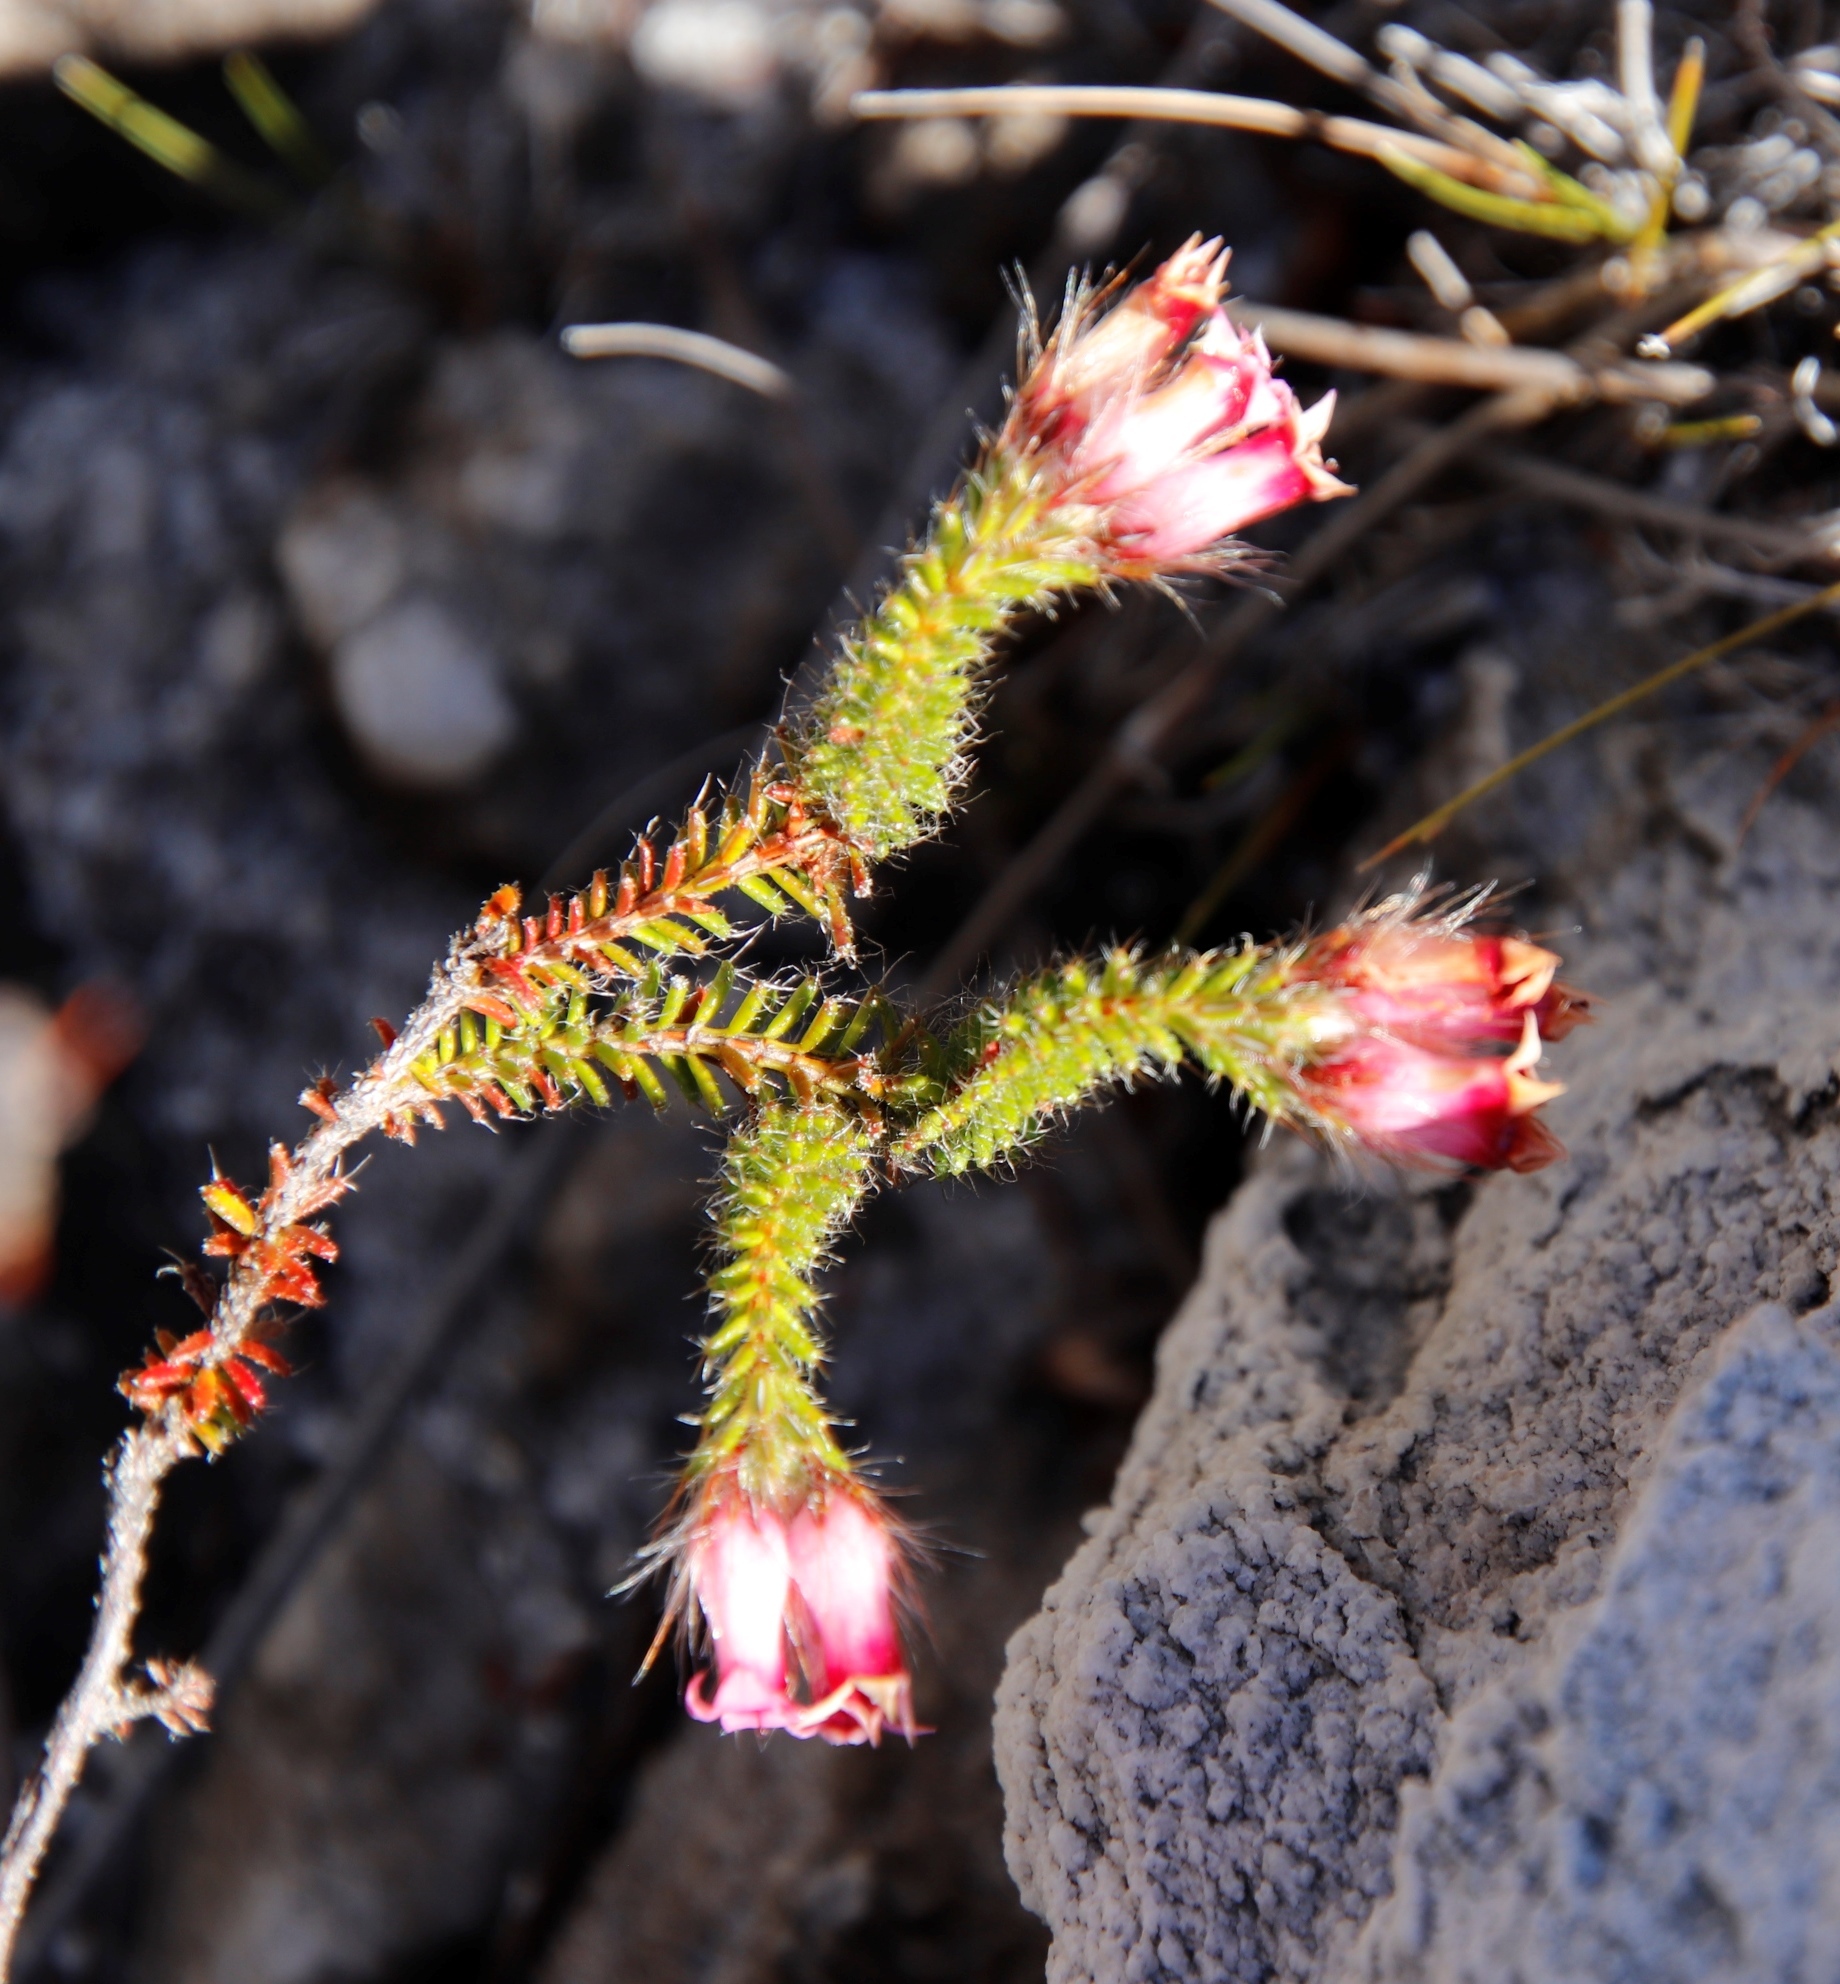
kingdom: Plantae
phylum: Tracheophyta
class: Magnoliopsida
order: Ericales
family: Ericaceae
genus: Erica
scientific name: Erica gysbertii
